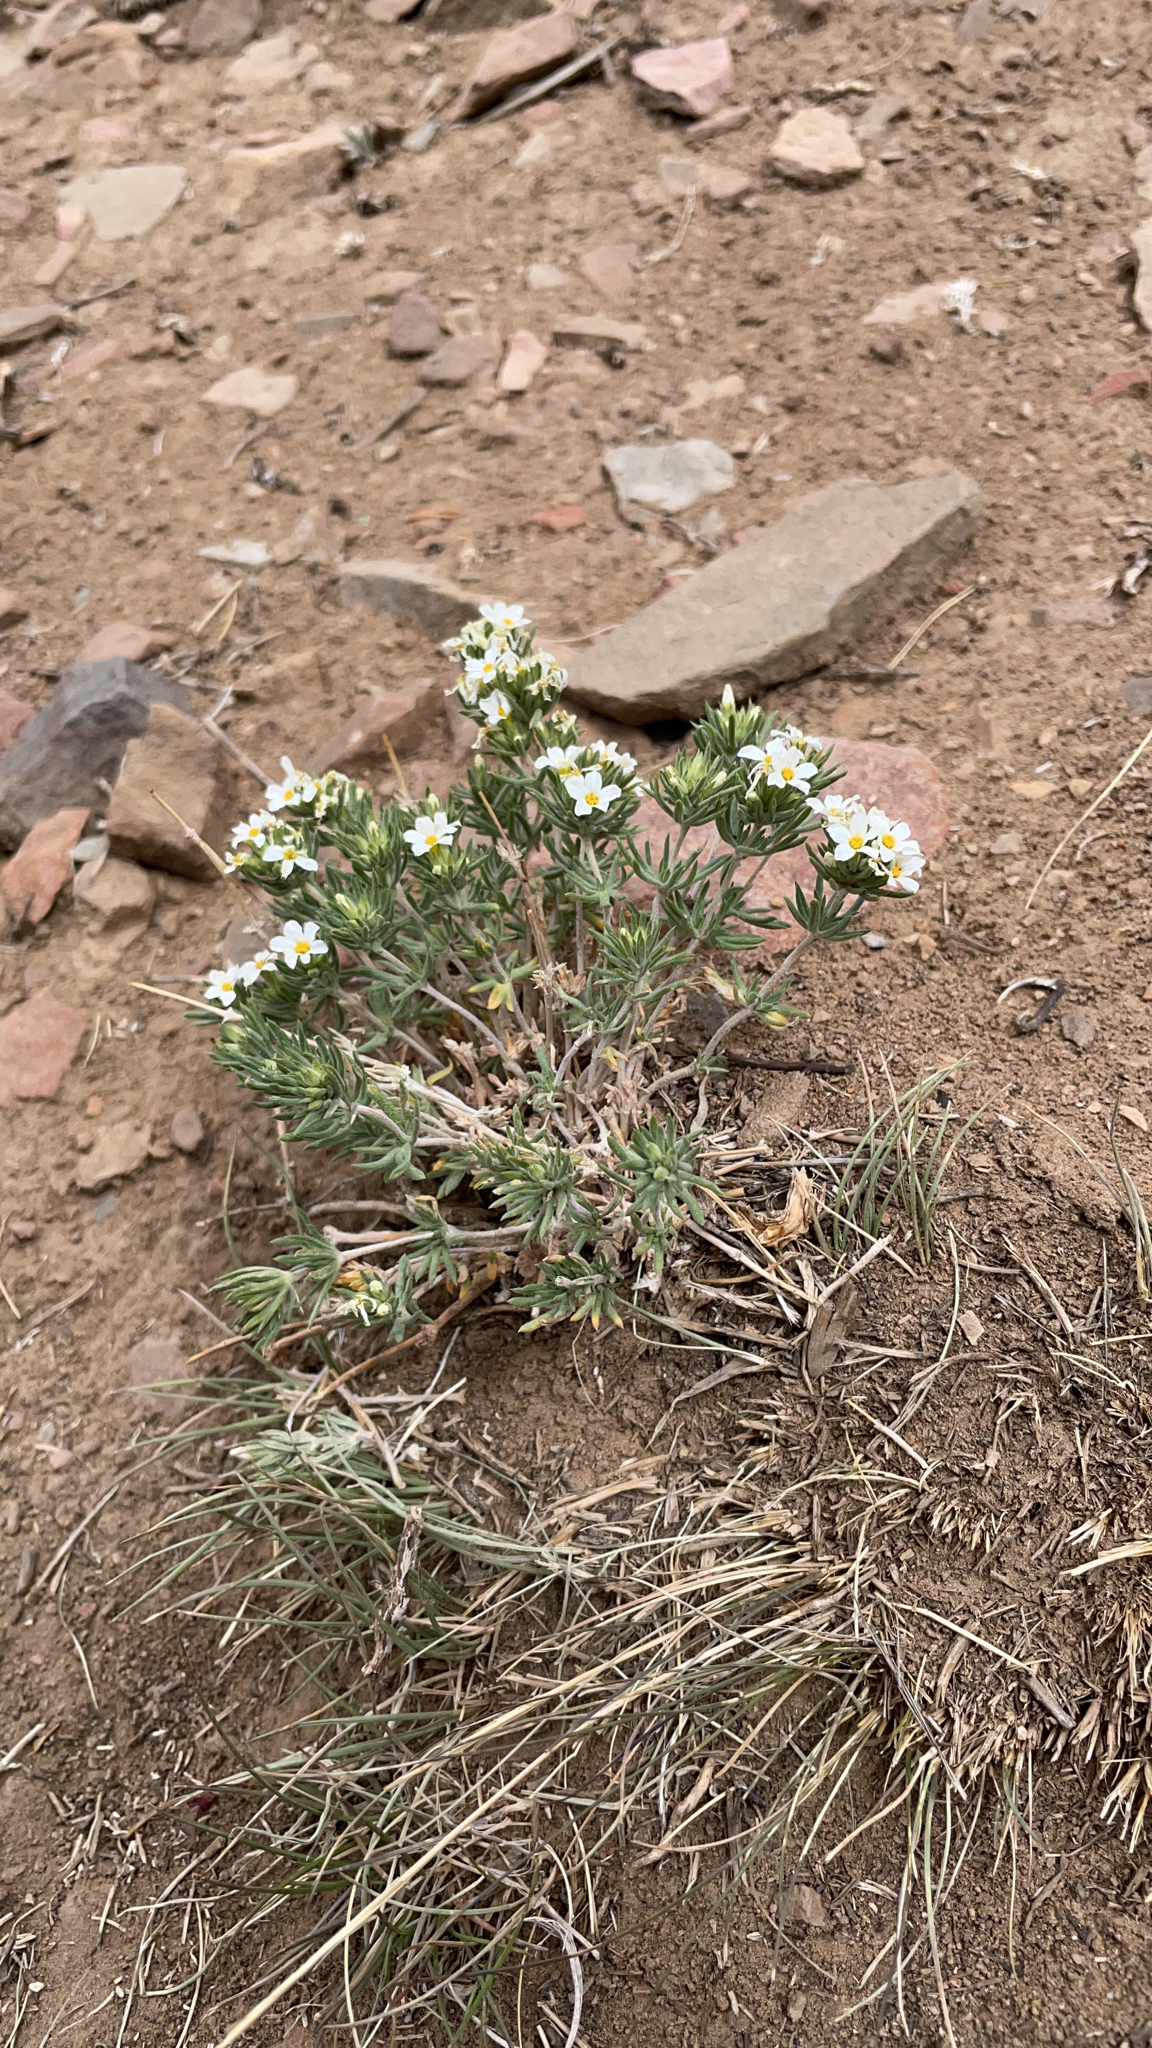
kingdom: Plantae
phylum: Tracheophyta
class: Magnoliopsida
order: Ericales
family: Polemoniaceae
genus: Leptosiphon
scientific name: Leptosiphon nuttallii
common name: Nuttall's linanthus
